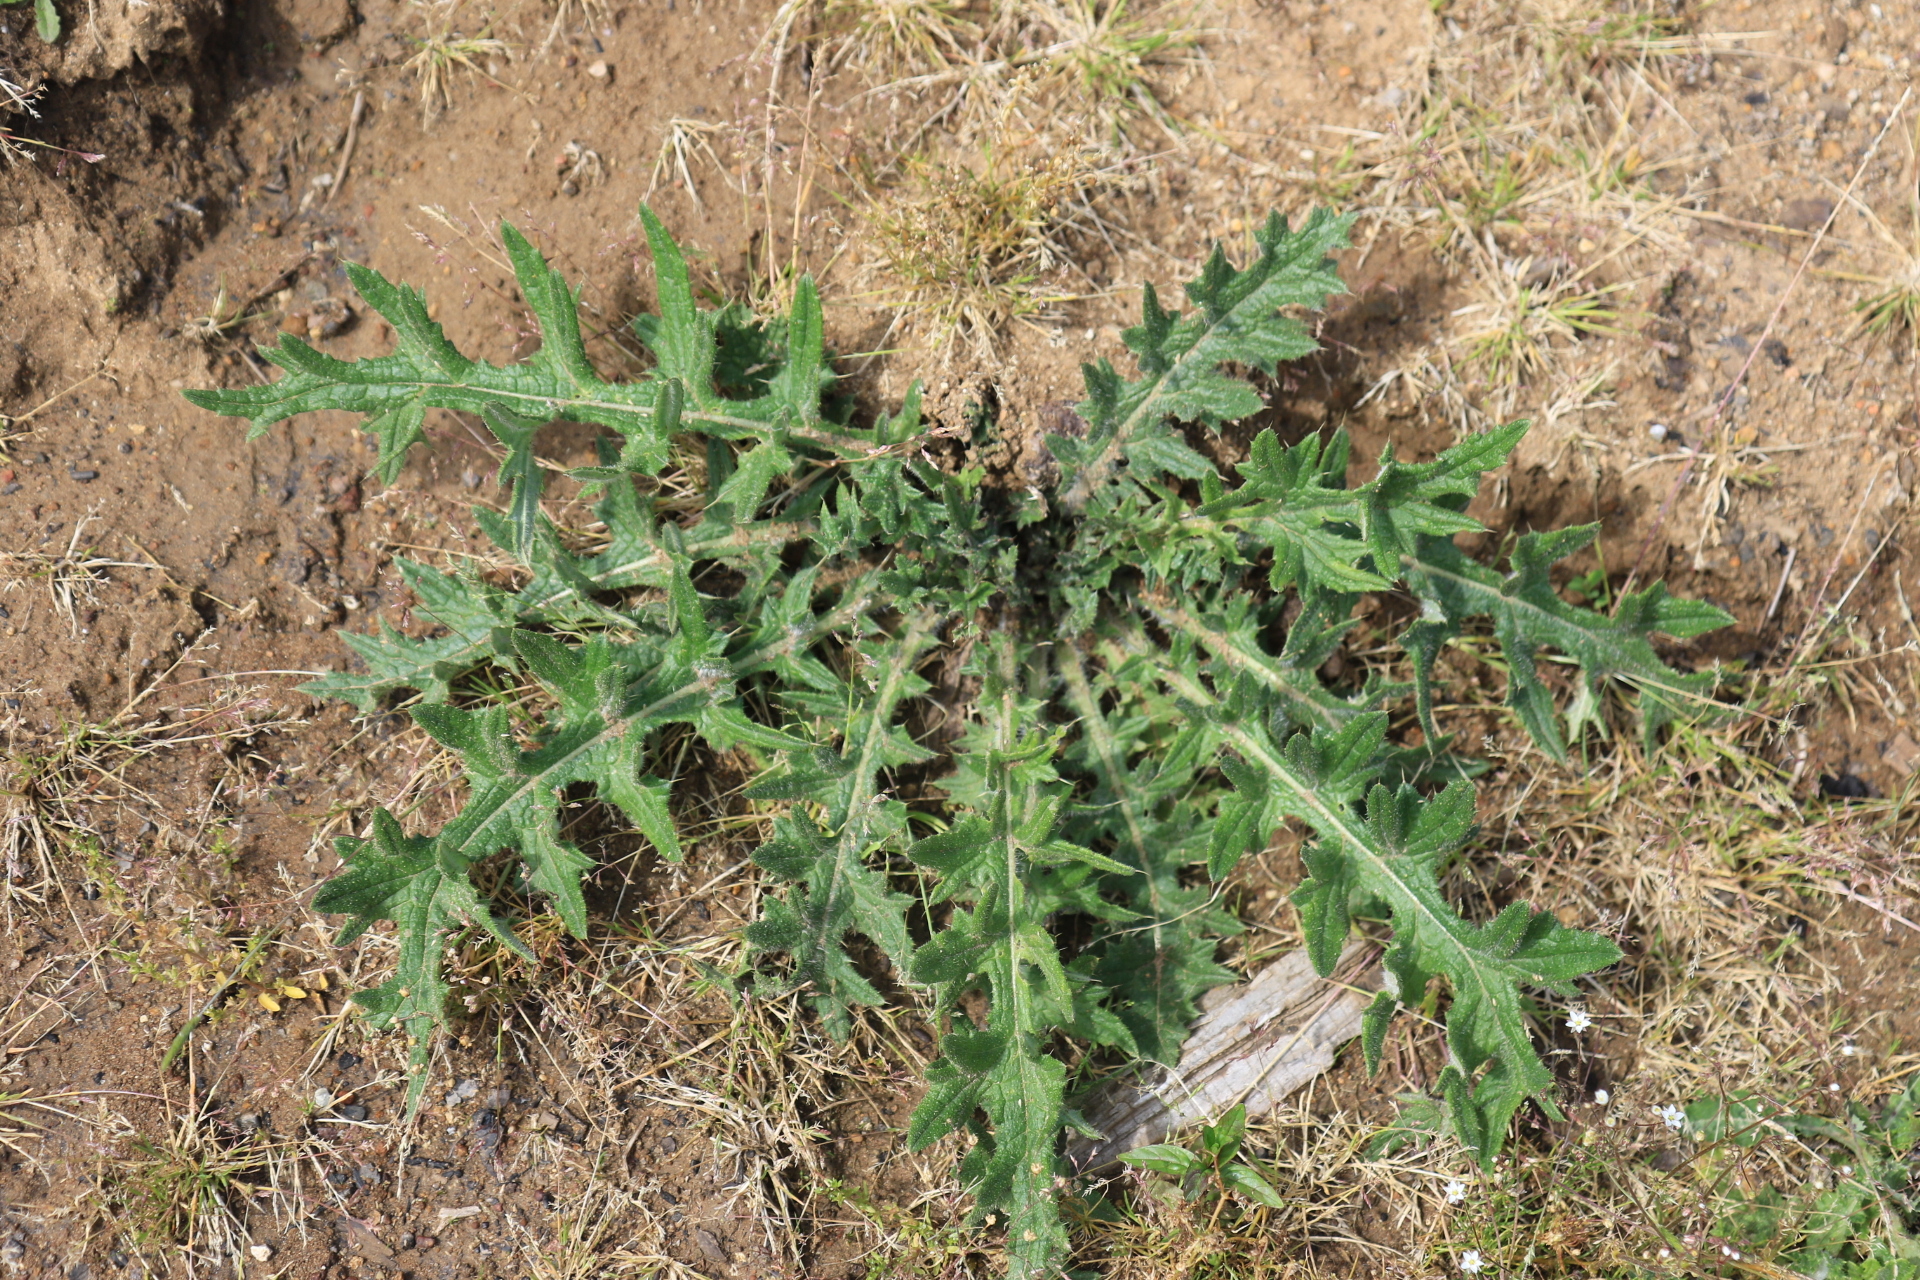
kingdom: Plantae
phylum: Tracheophyta
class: Magnoliopsida
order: Asterales
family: Asteraceae
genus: Cirsium
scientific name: Cirsium vulgare
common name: Bull thistle
